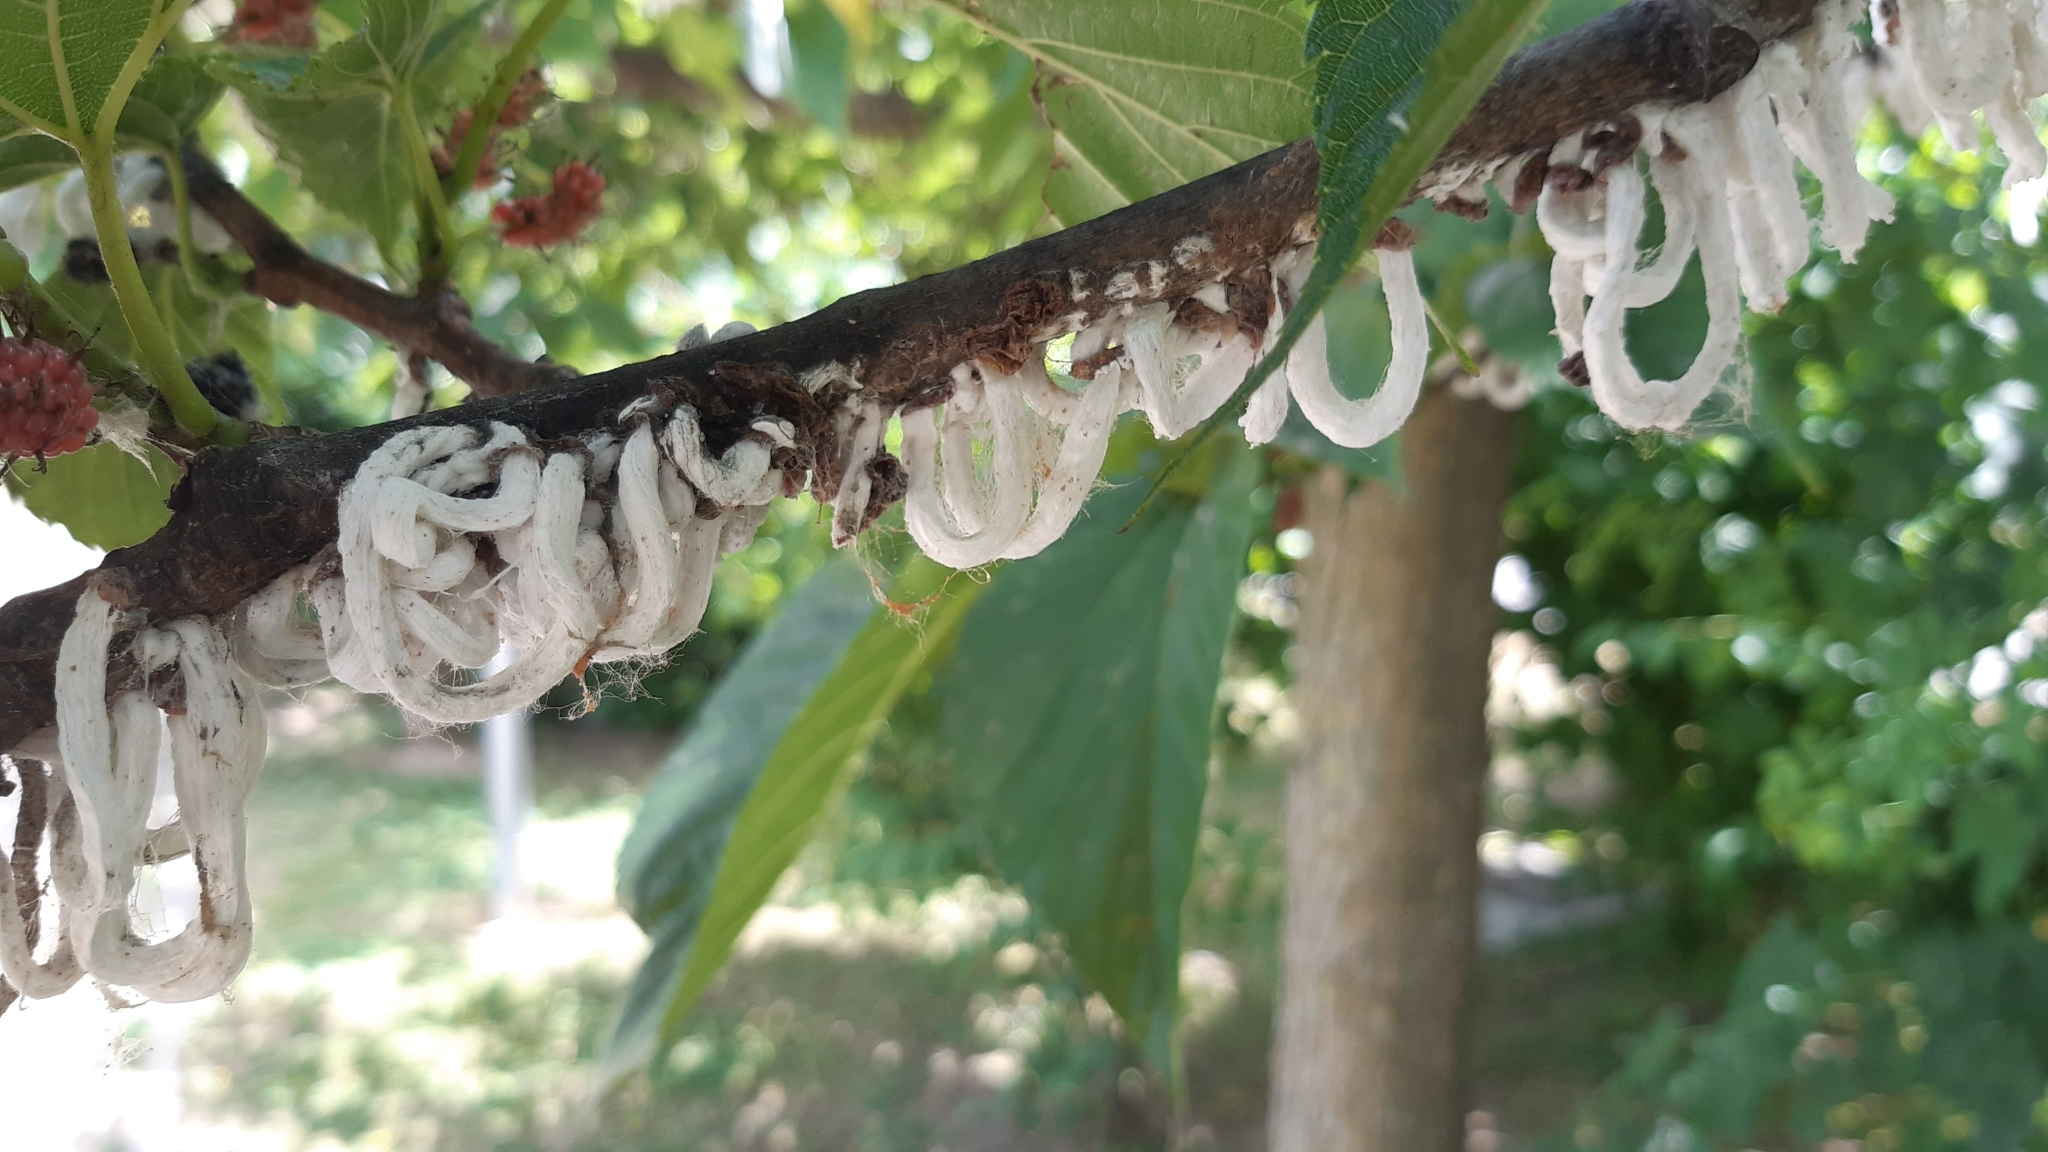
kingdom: Animalia
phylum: Arthropoda
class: Insecta
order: Hemiptera
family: Coccidae
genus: Takahashia
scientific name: Takahashia japonica
